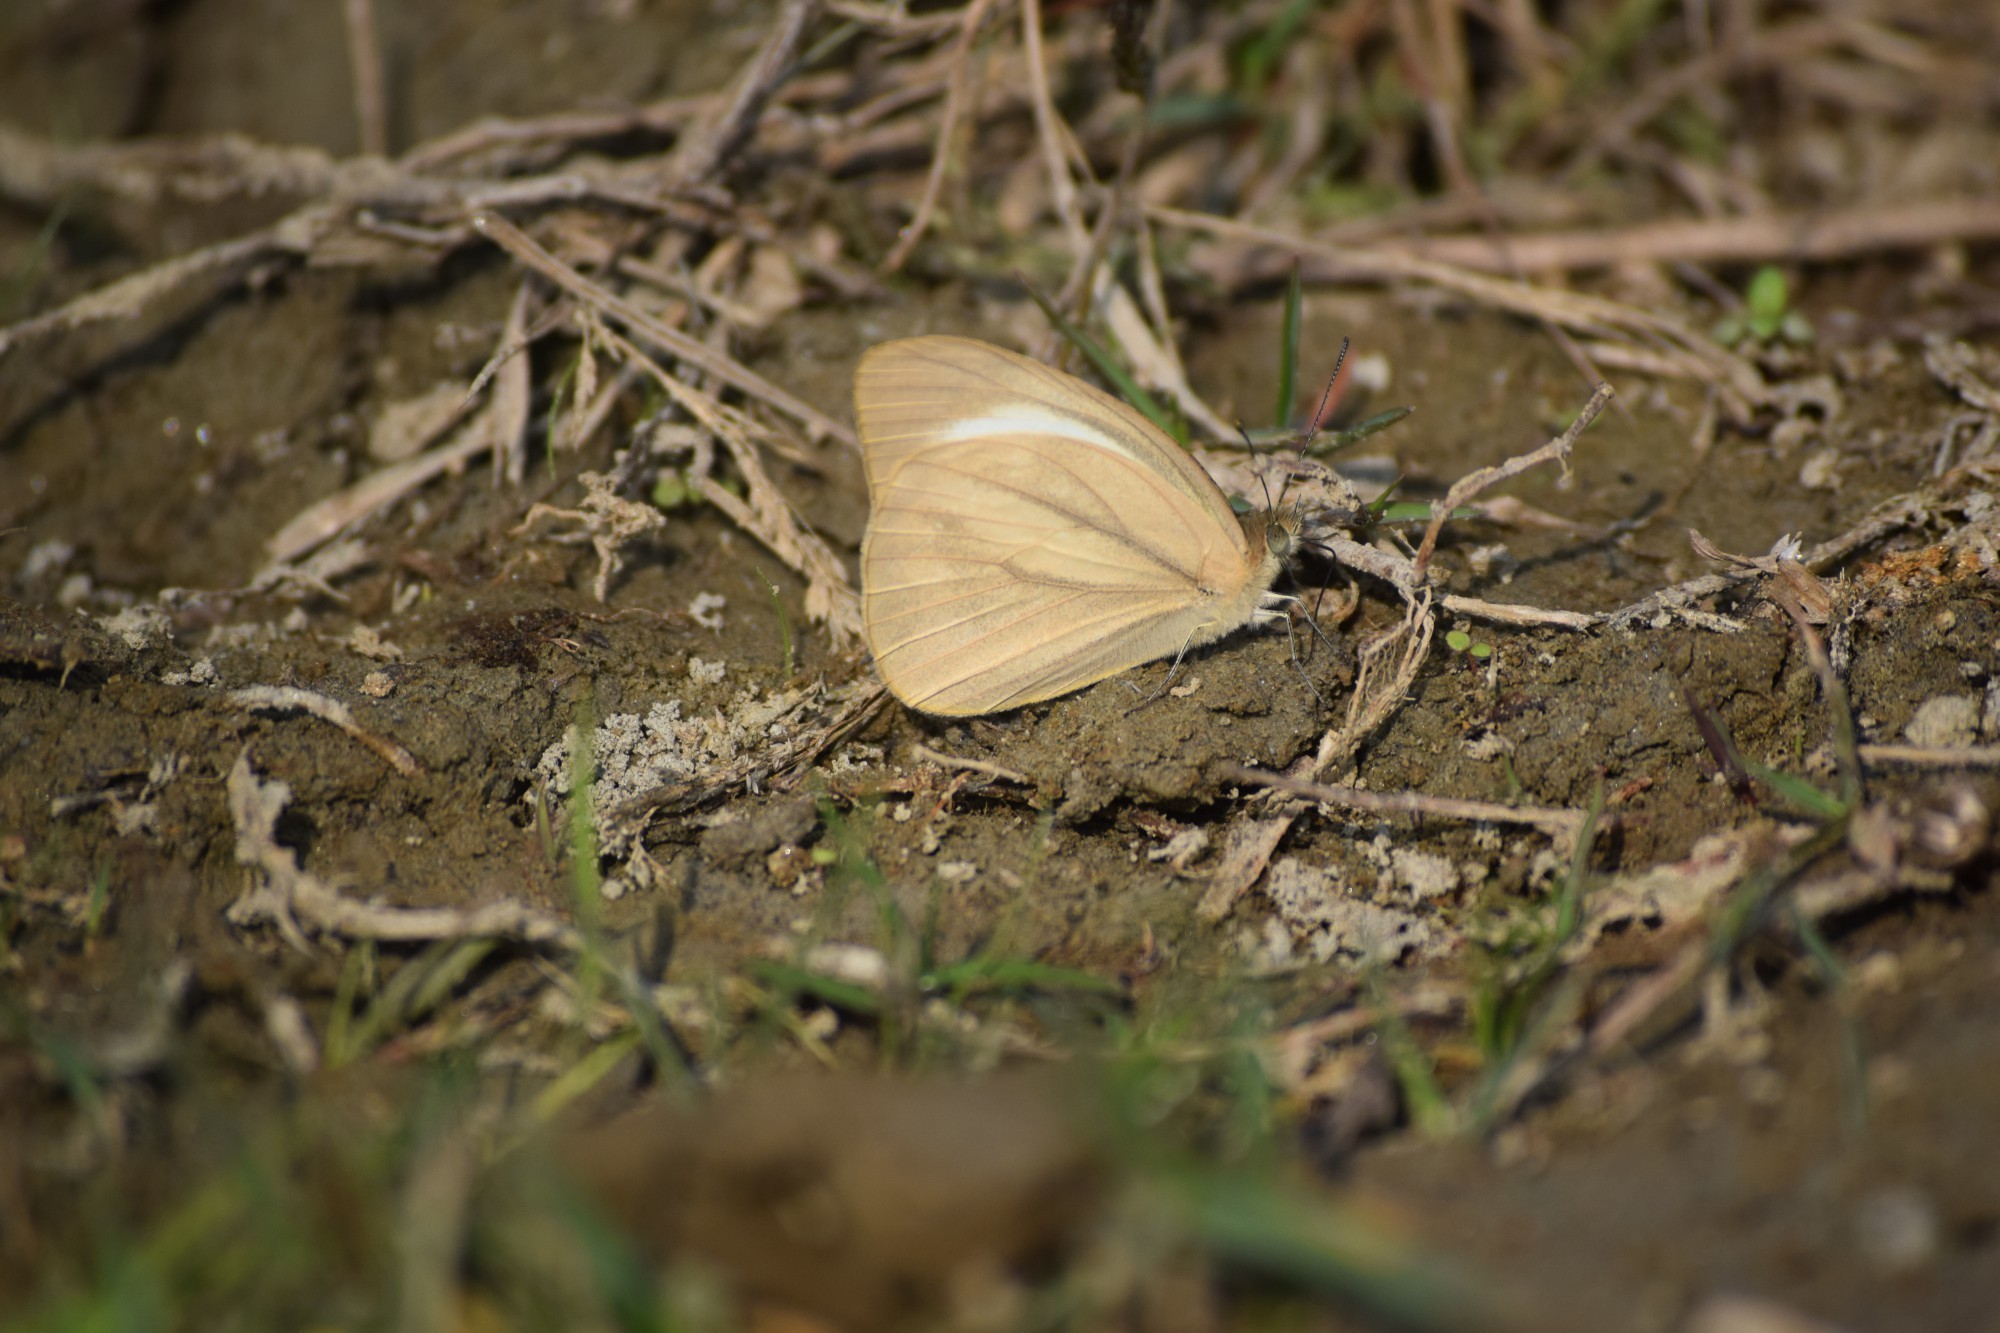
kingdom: Animalia
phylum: Arthropoda
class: Insecta
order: Lepidoptera
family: Pieridae
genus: Cepora
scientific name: Cepora nadina
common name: Lesser gull
